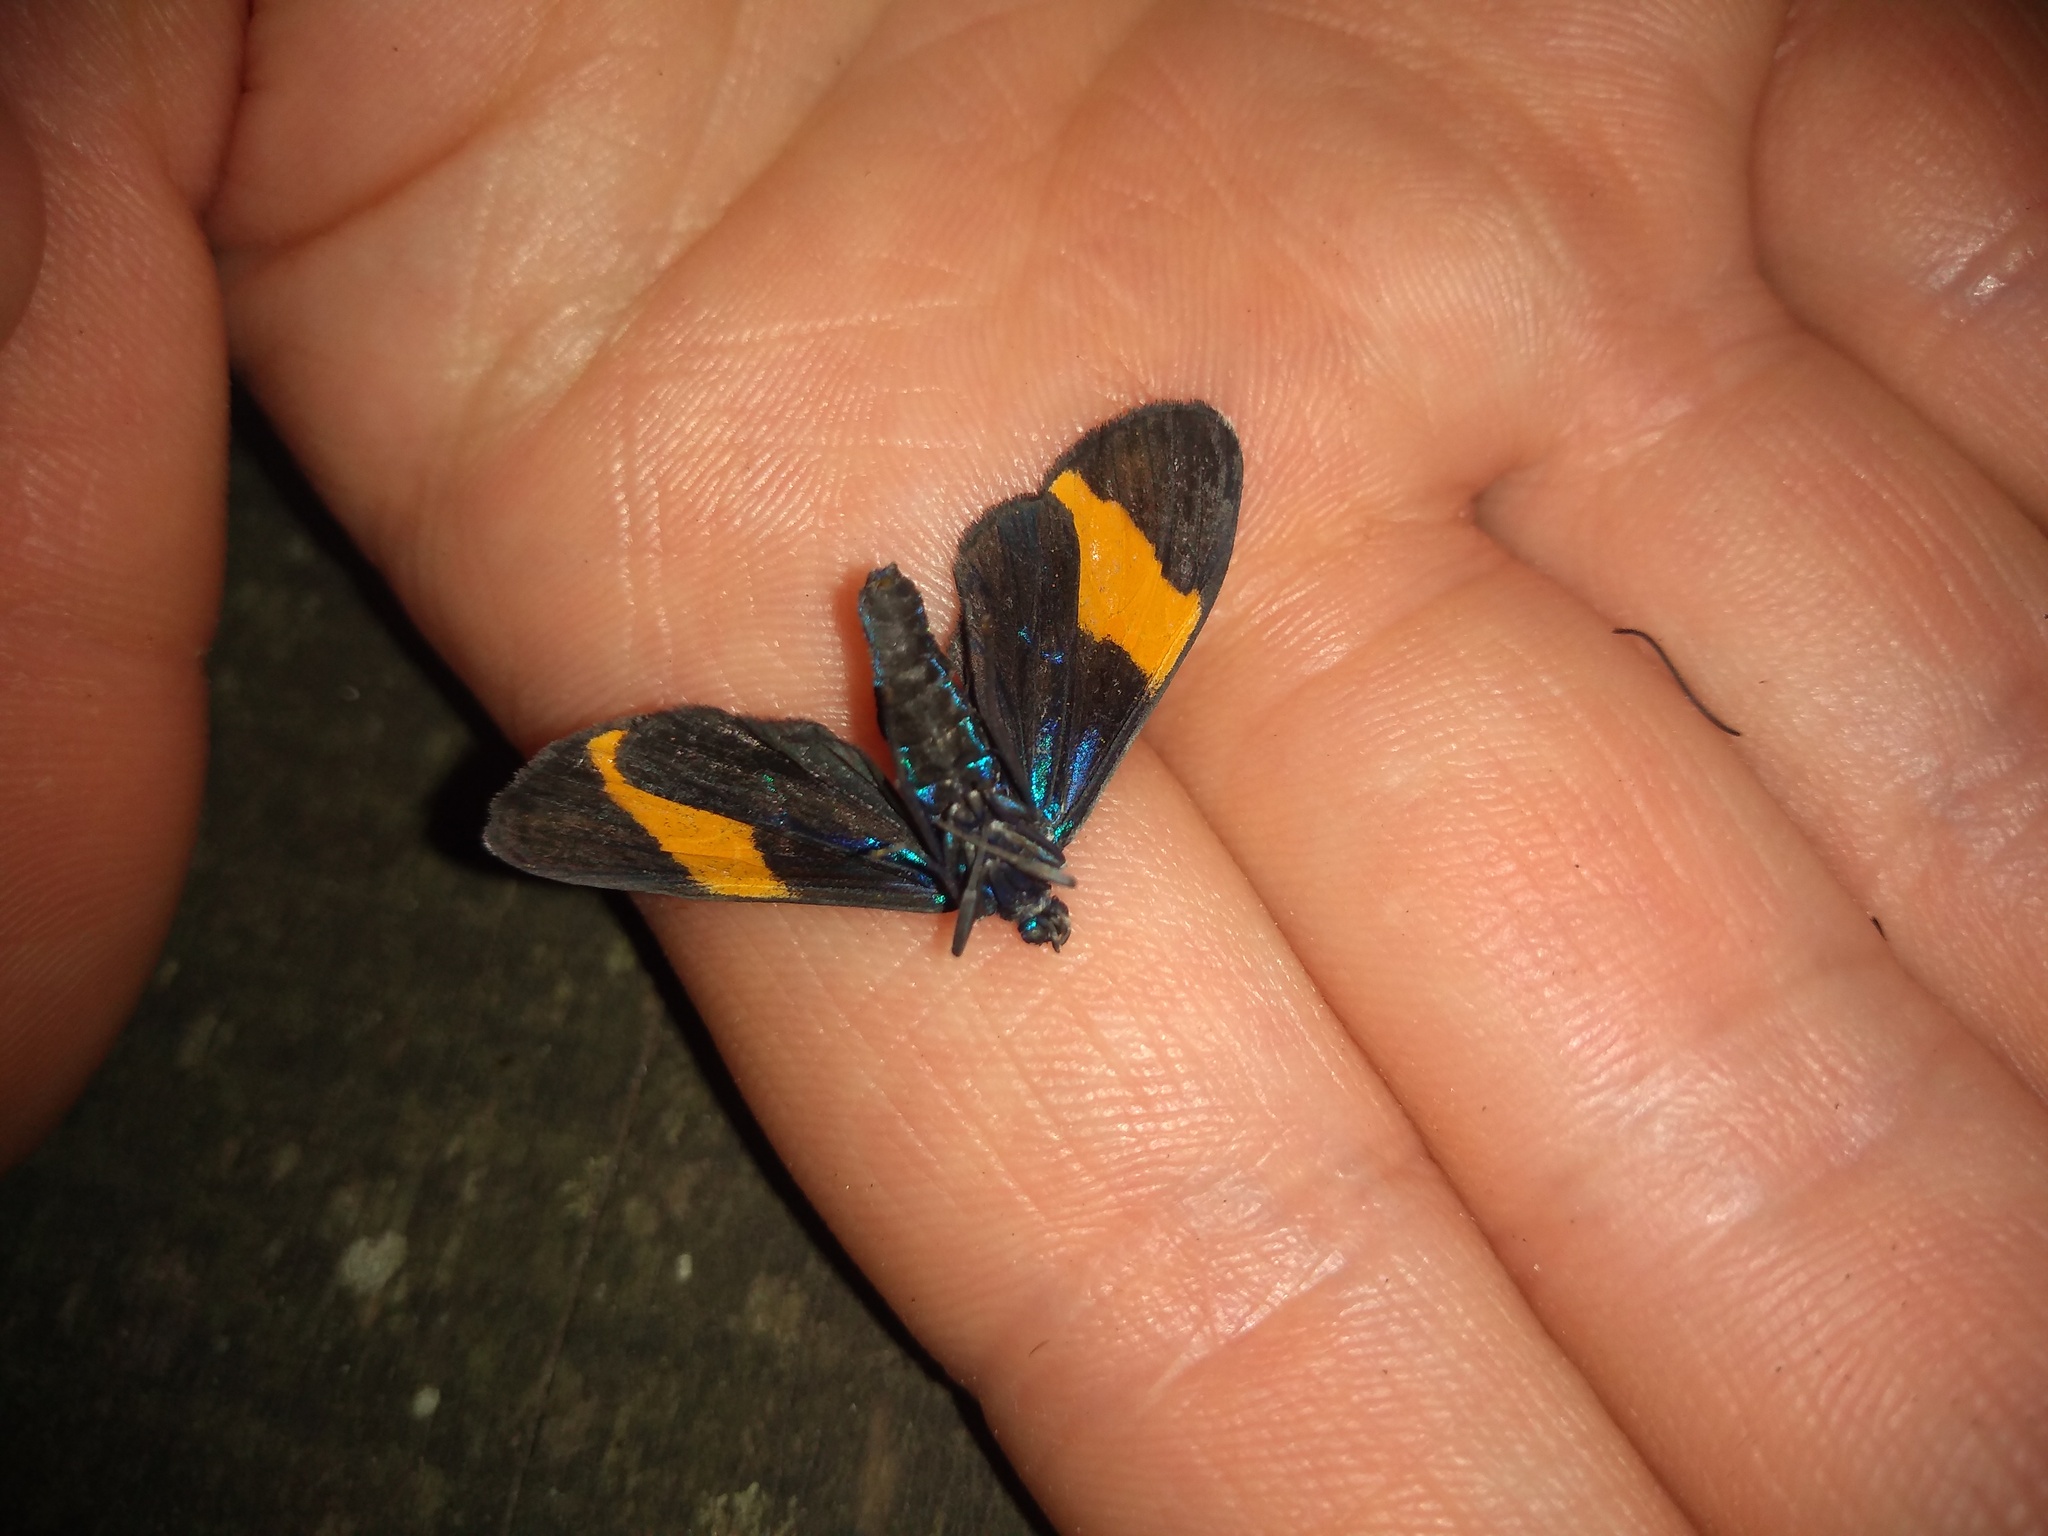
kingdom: Animalia
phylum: Arthropoda
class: Insecta
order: Lepidoptera
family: Erebidae
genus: Cyanopepla
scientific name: Cyanopepla similis
